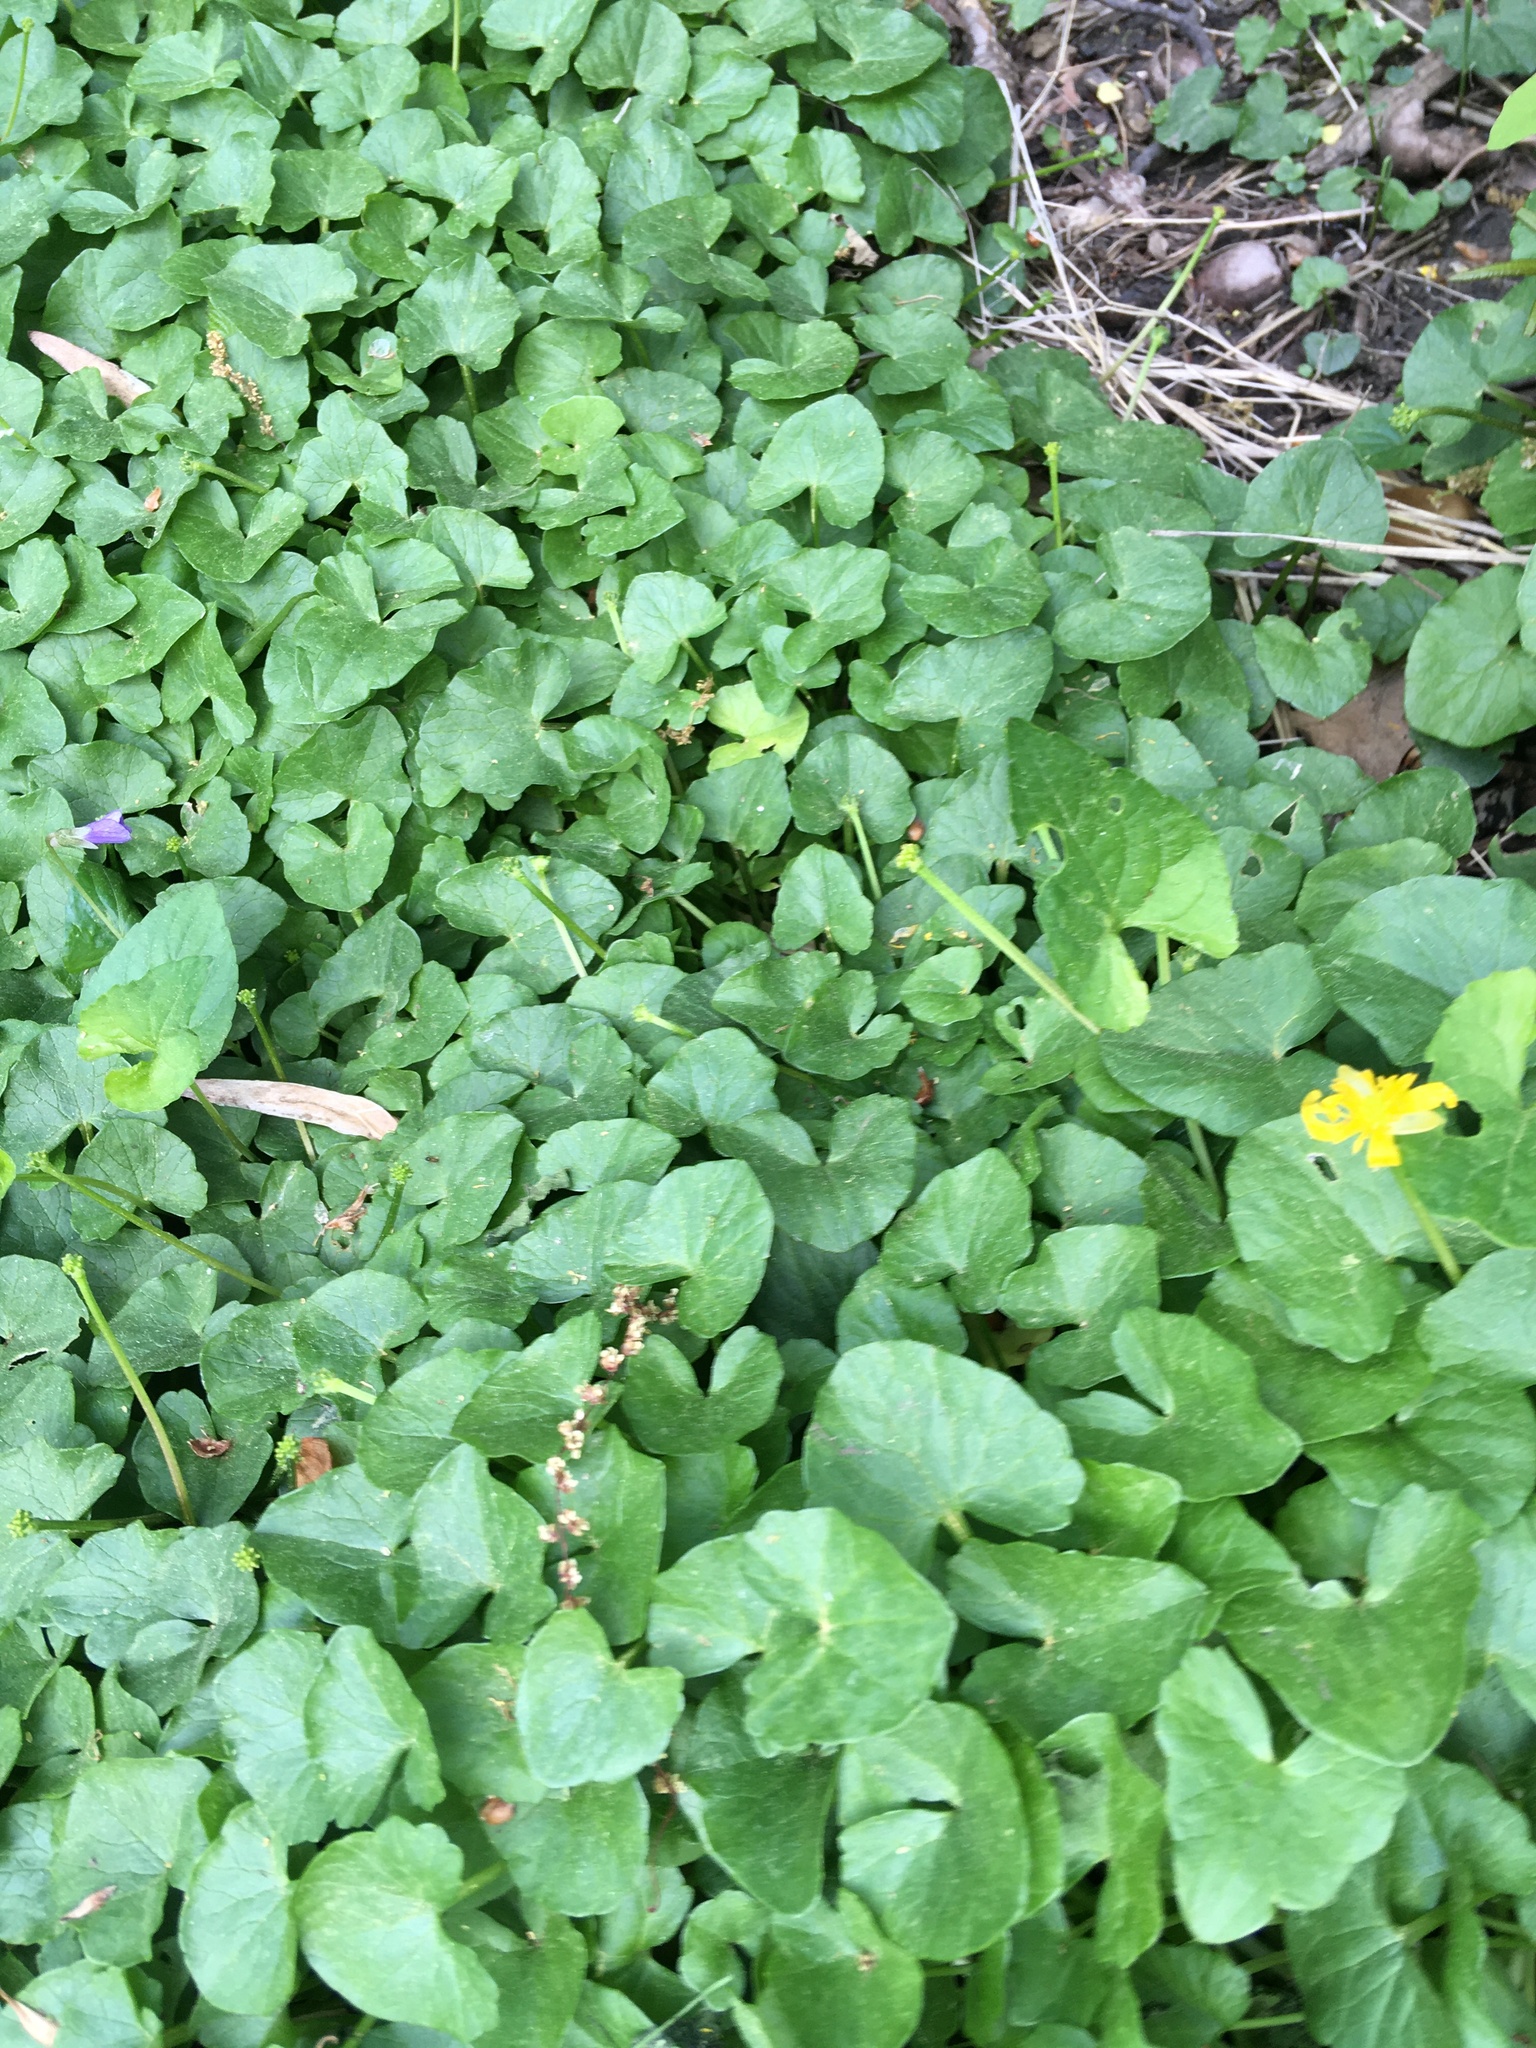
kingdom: Plantae
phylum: Tracheophyta
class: Magnoliopsida
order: Ranunculales
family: Ranunculaceae
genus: Ficaria
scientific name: Ficaria verna
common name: Lesser celandine
